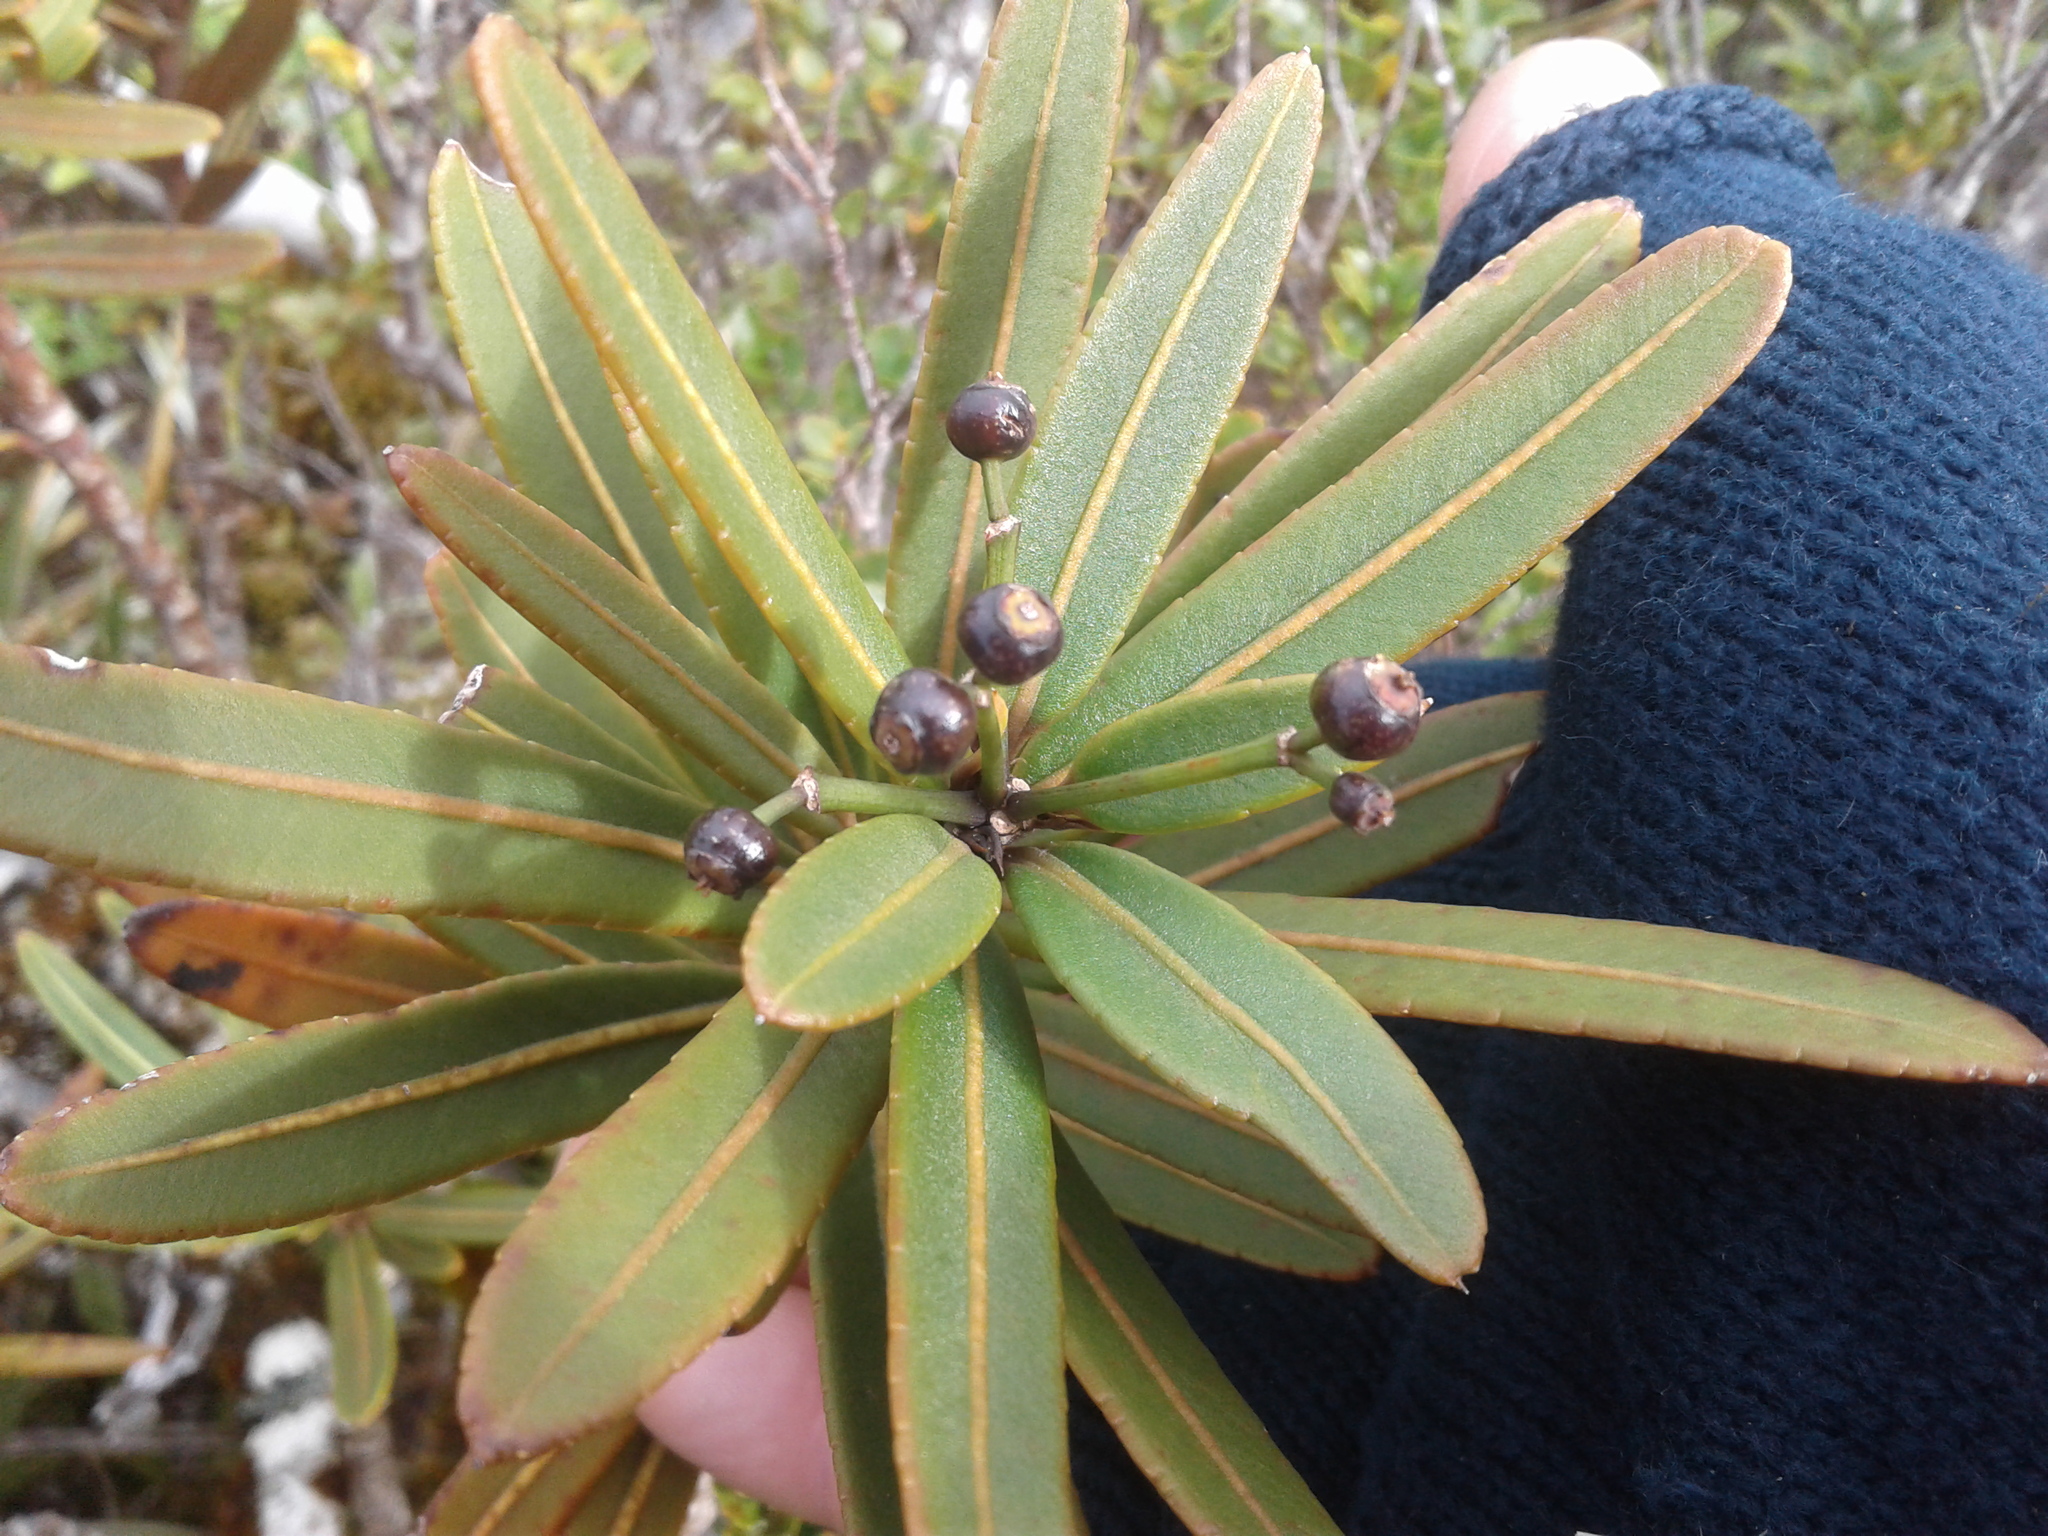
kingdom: Plantae
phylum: Tracheophyta
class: Magnoliopsida
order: Apiales
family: Araliaceae
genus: Pseudopanax
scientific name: Pseudopanax linearis
